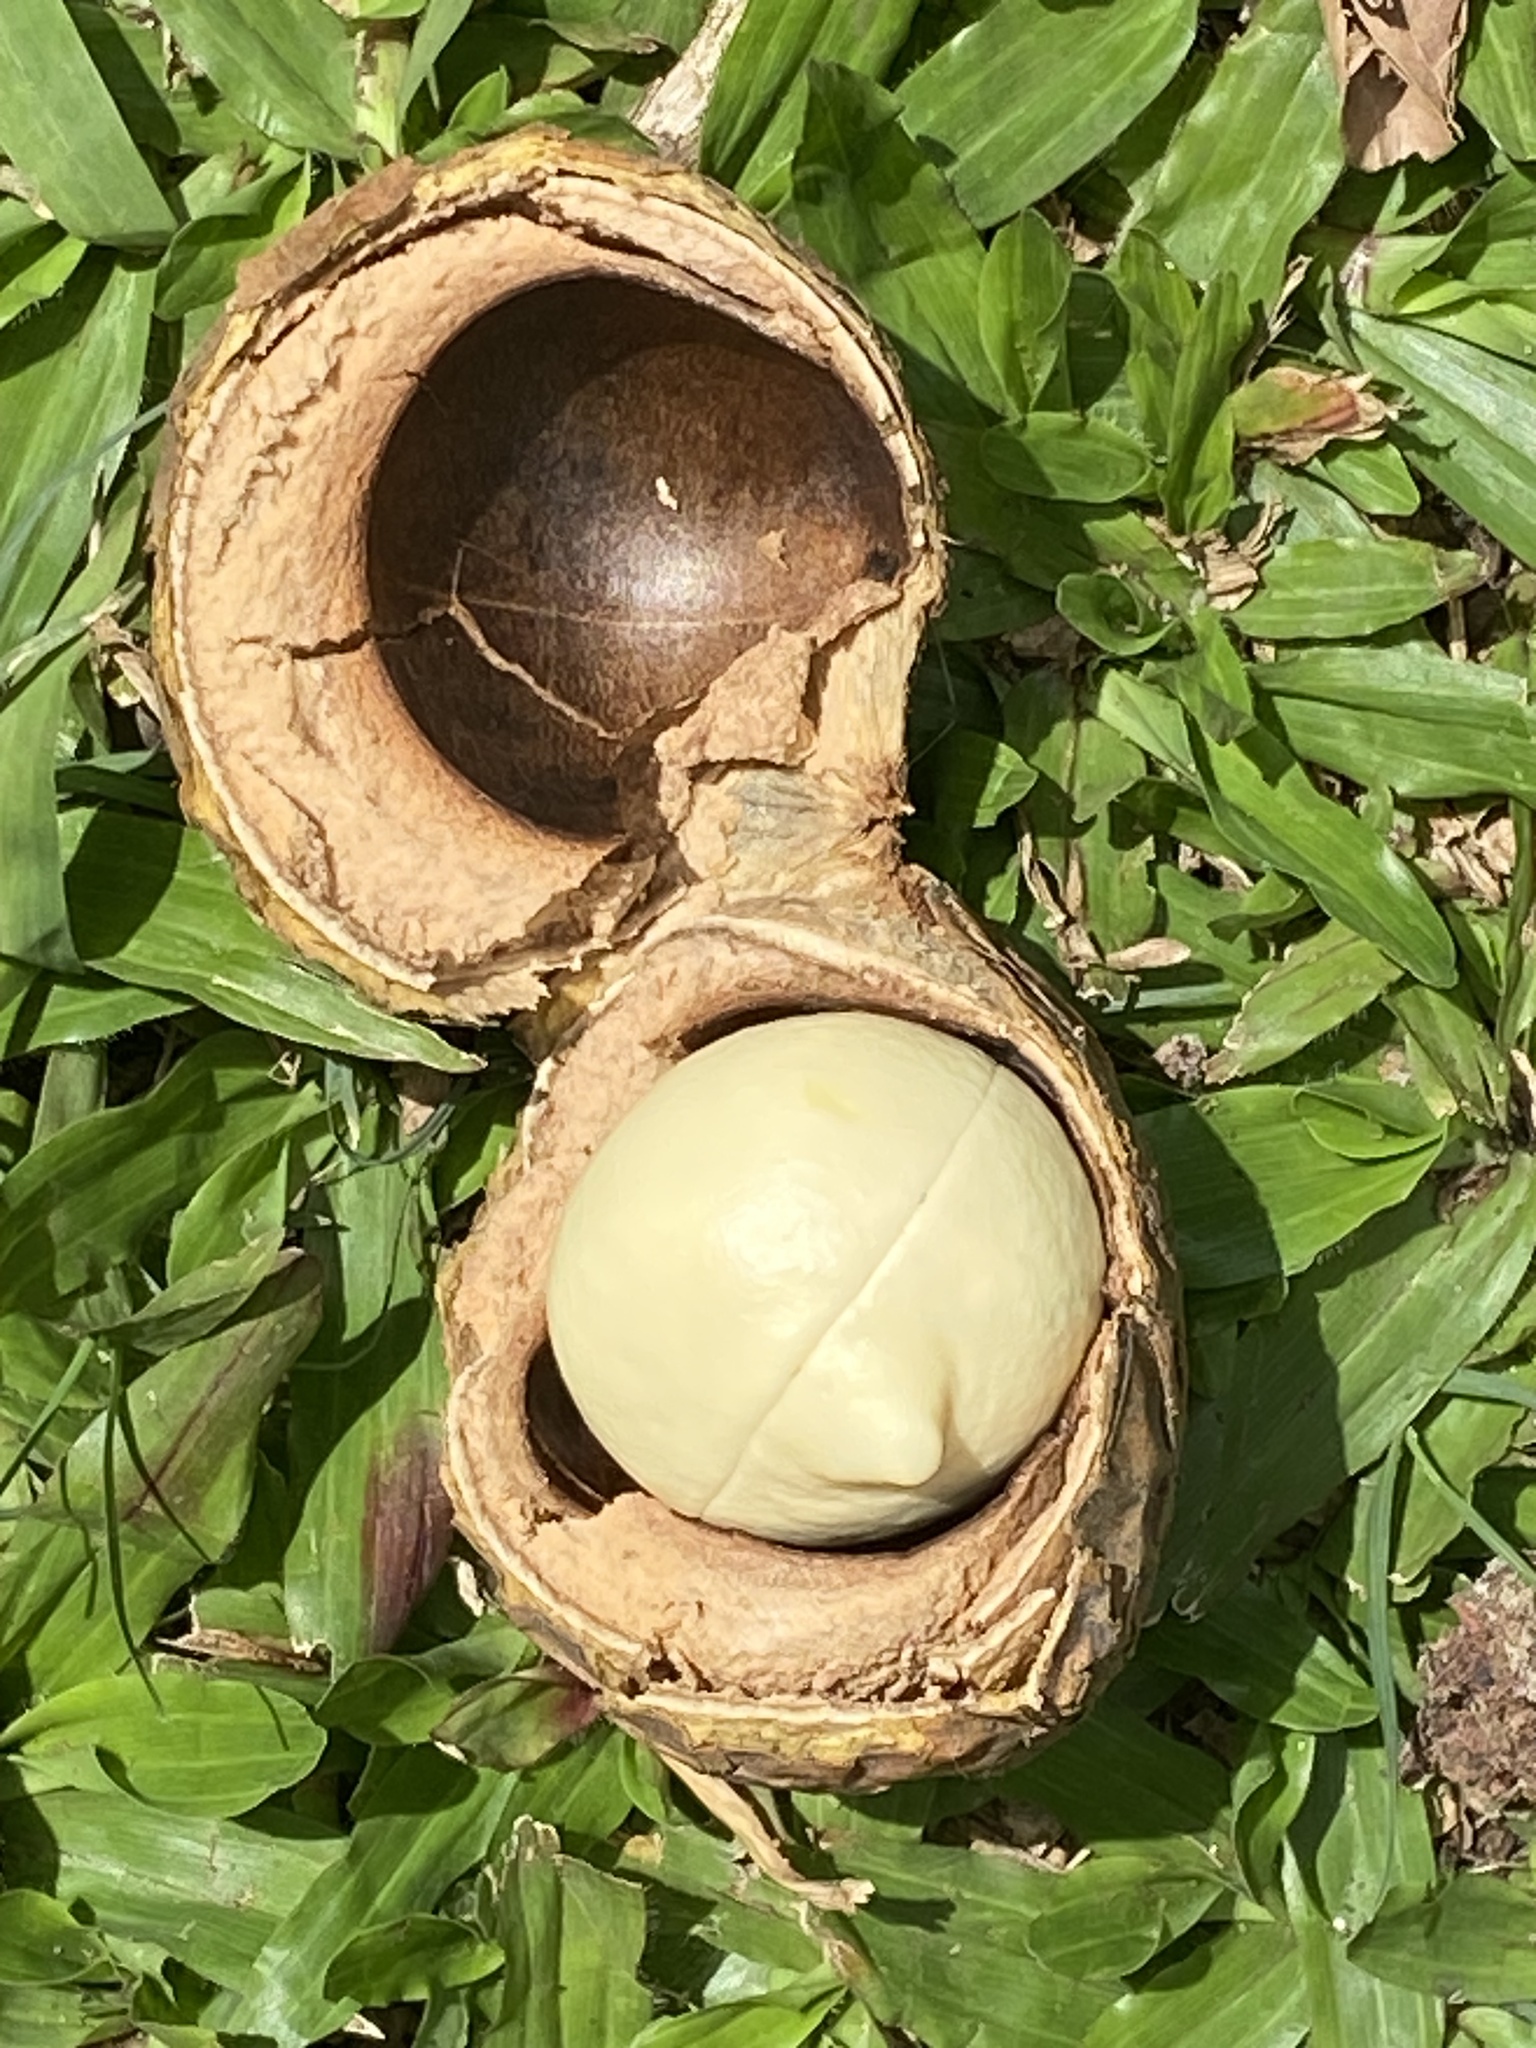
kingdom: Plantae
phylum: Tracheophyta
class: Magnoliopsida
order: Malpighiales
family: Euphorbiaceae
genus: Aleurites
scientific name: Aleurites moluccanus
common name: Candlenut tree
